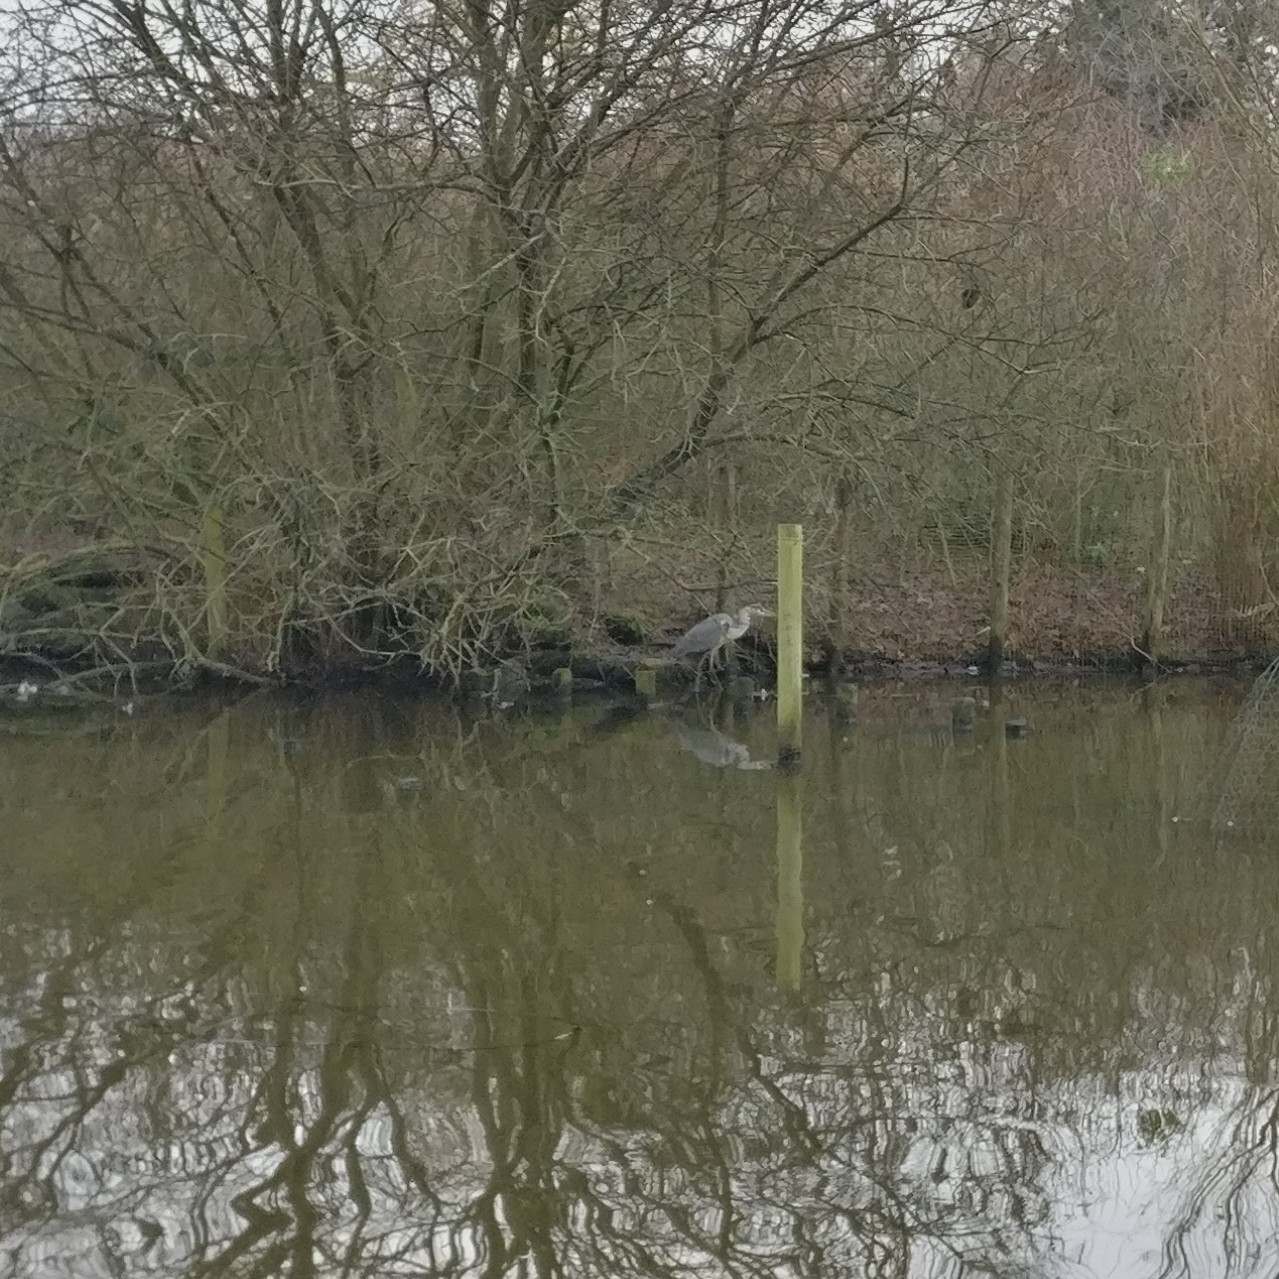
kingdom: Animalia
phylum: Chordata
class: Aves
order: Pelecaniformes
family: Ardeidae
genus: Ardea
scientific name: Ardea cinerea
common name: Grey heron
